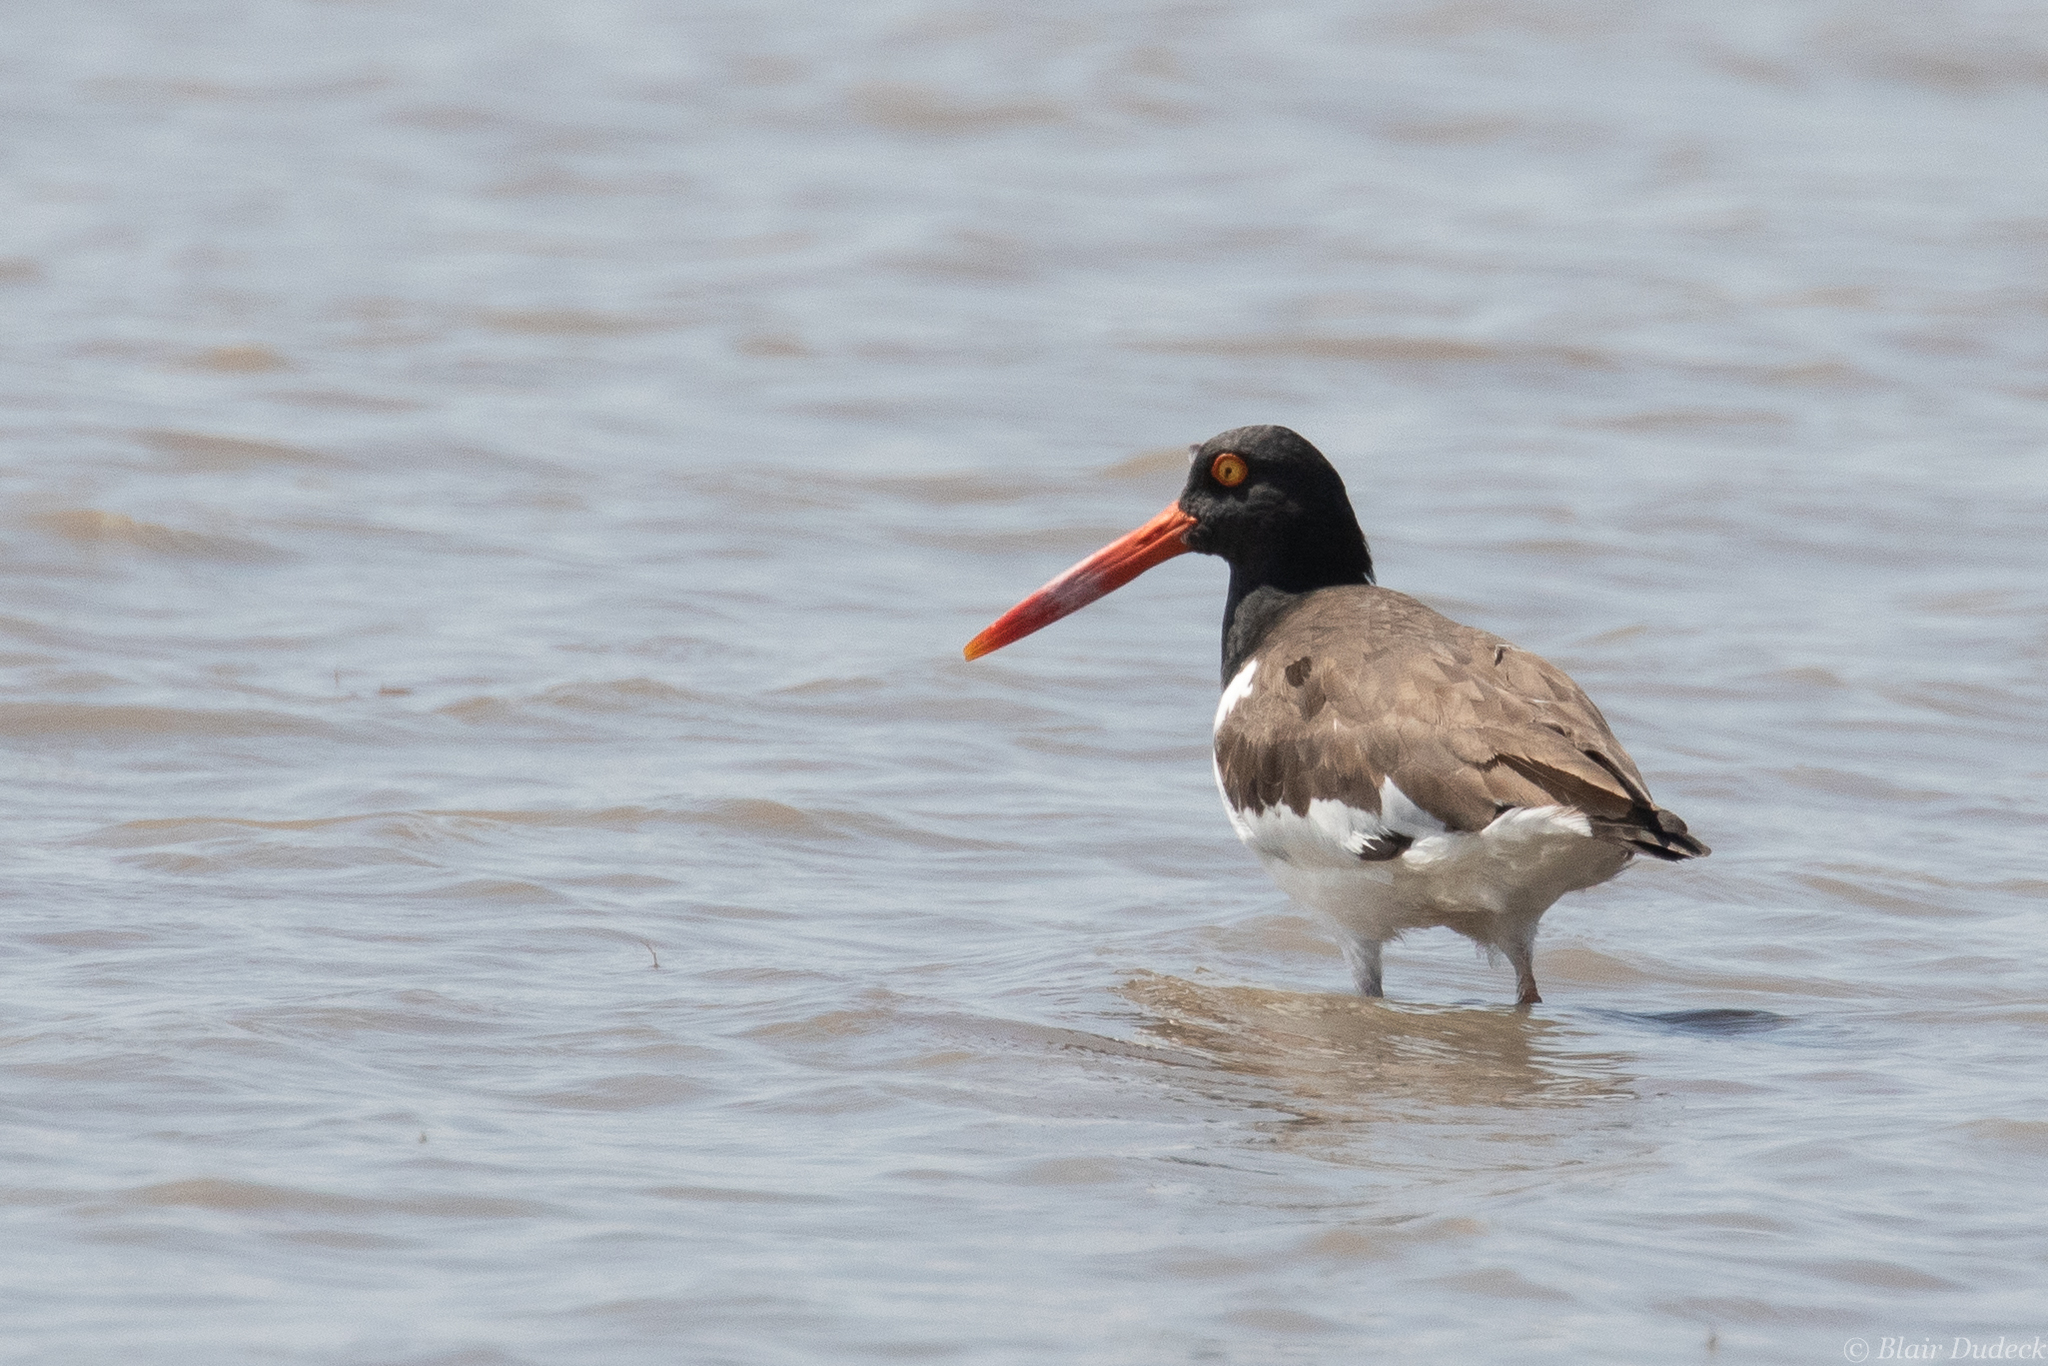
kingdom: Animalia
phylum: Chordata
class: Aves
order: Charadriiformes
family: Haematopodidae
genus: Haematopus
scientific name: Haematopus palliatus
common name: American oystercatcher
